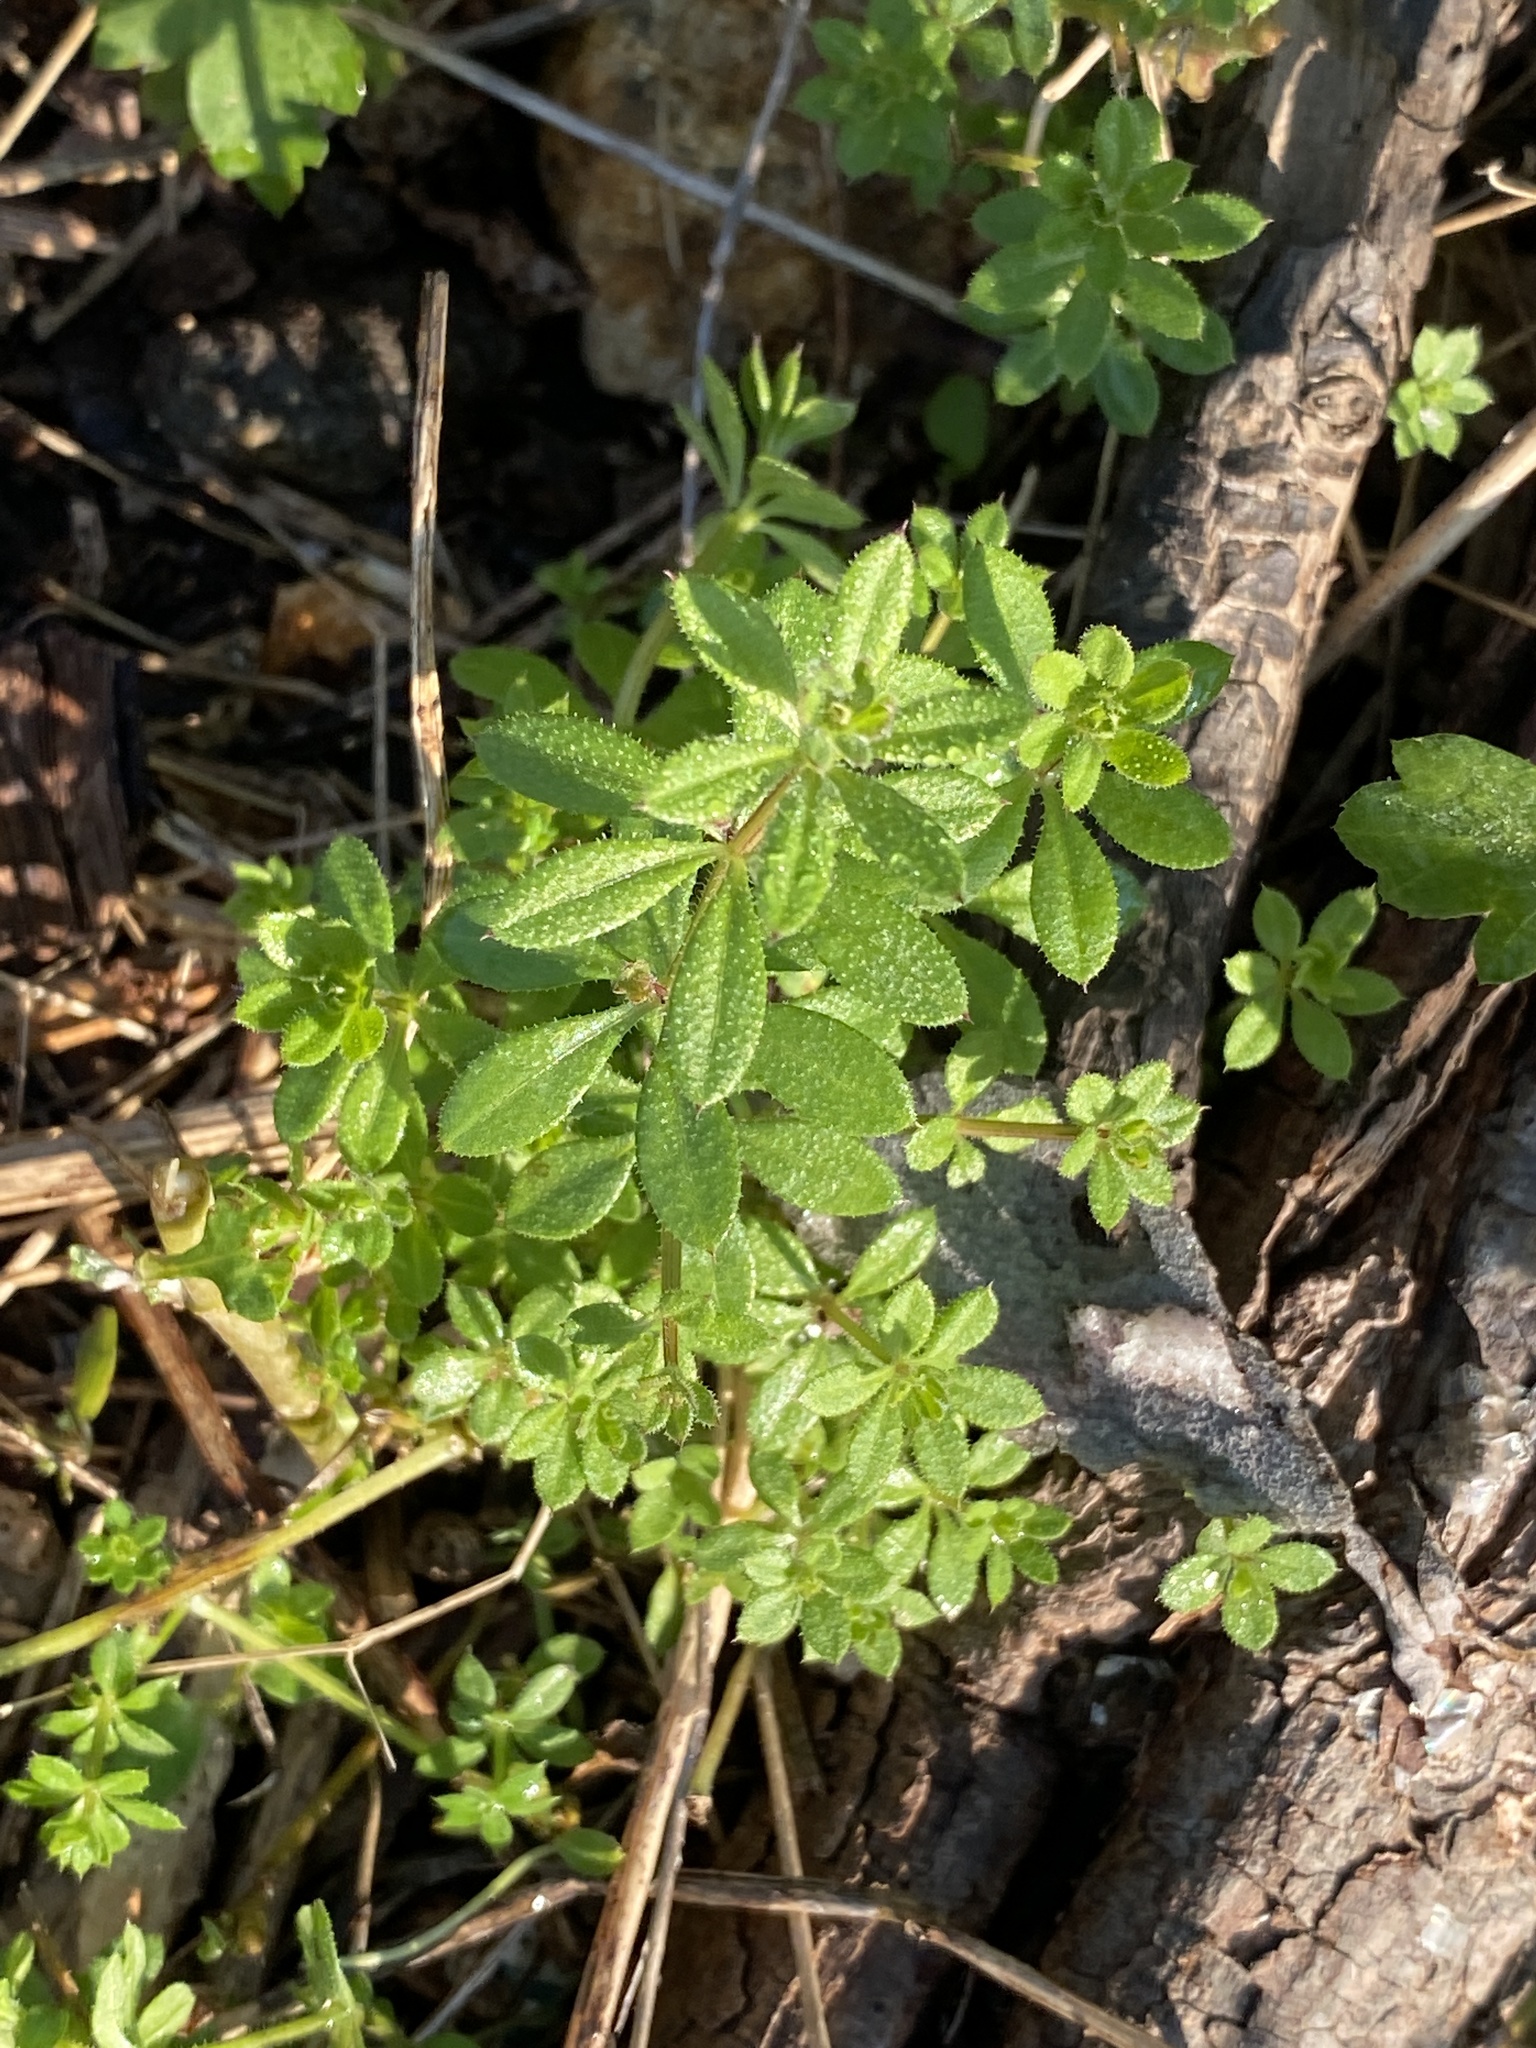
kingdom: Plantae
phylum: Tracheophyta
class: Magnoliopsida
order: Gentianales
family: Rubiaceae
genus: Galium
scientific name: Galium aparine
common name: Cleavers
